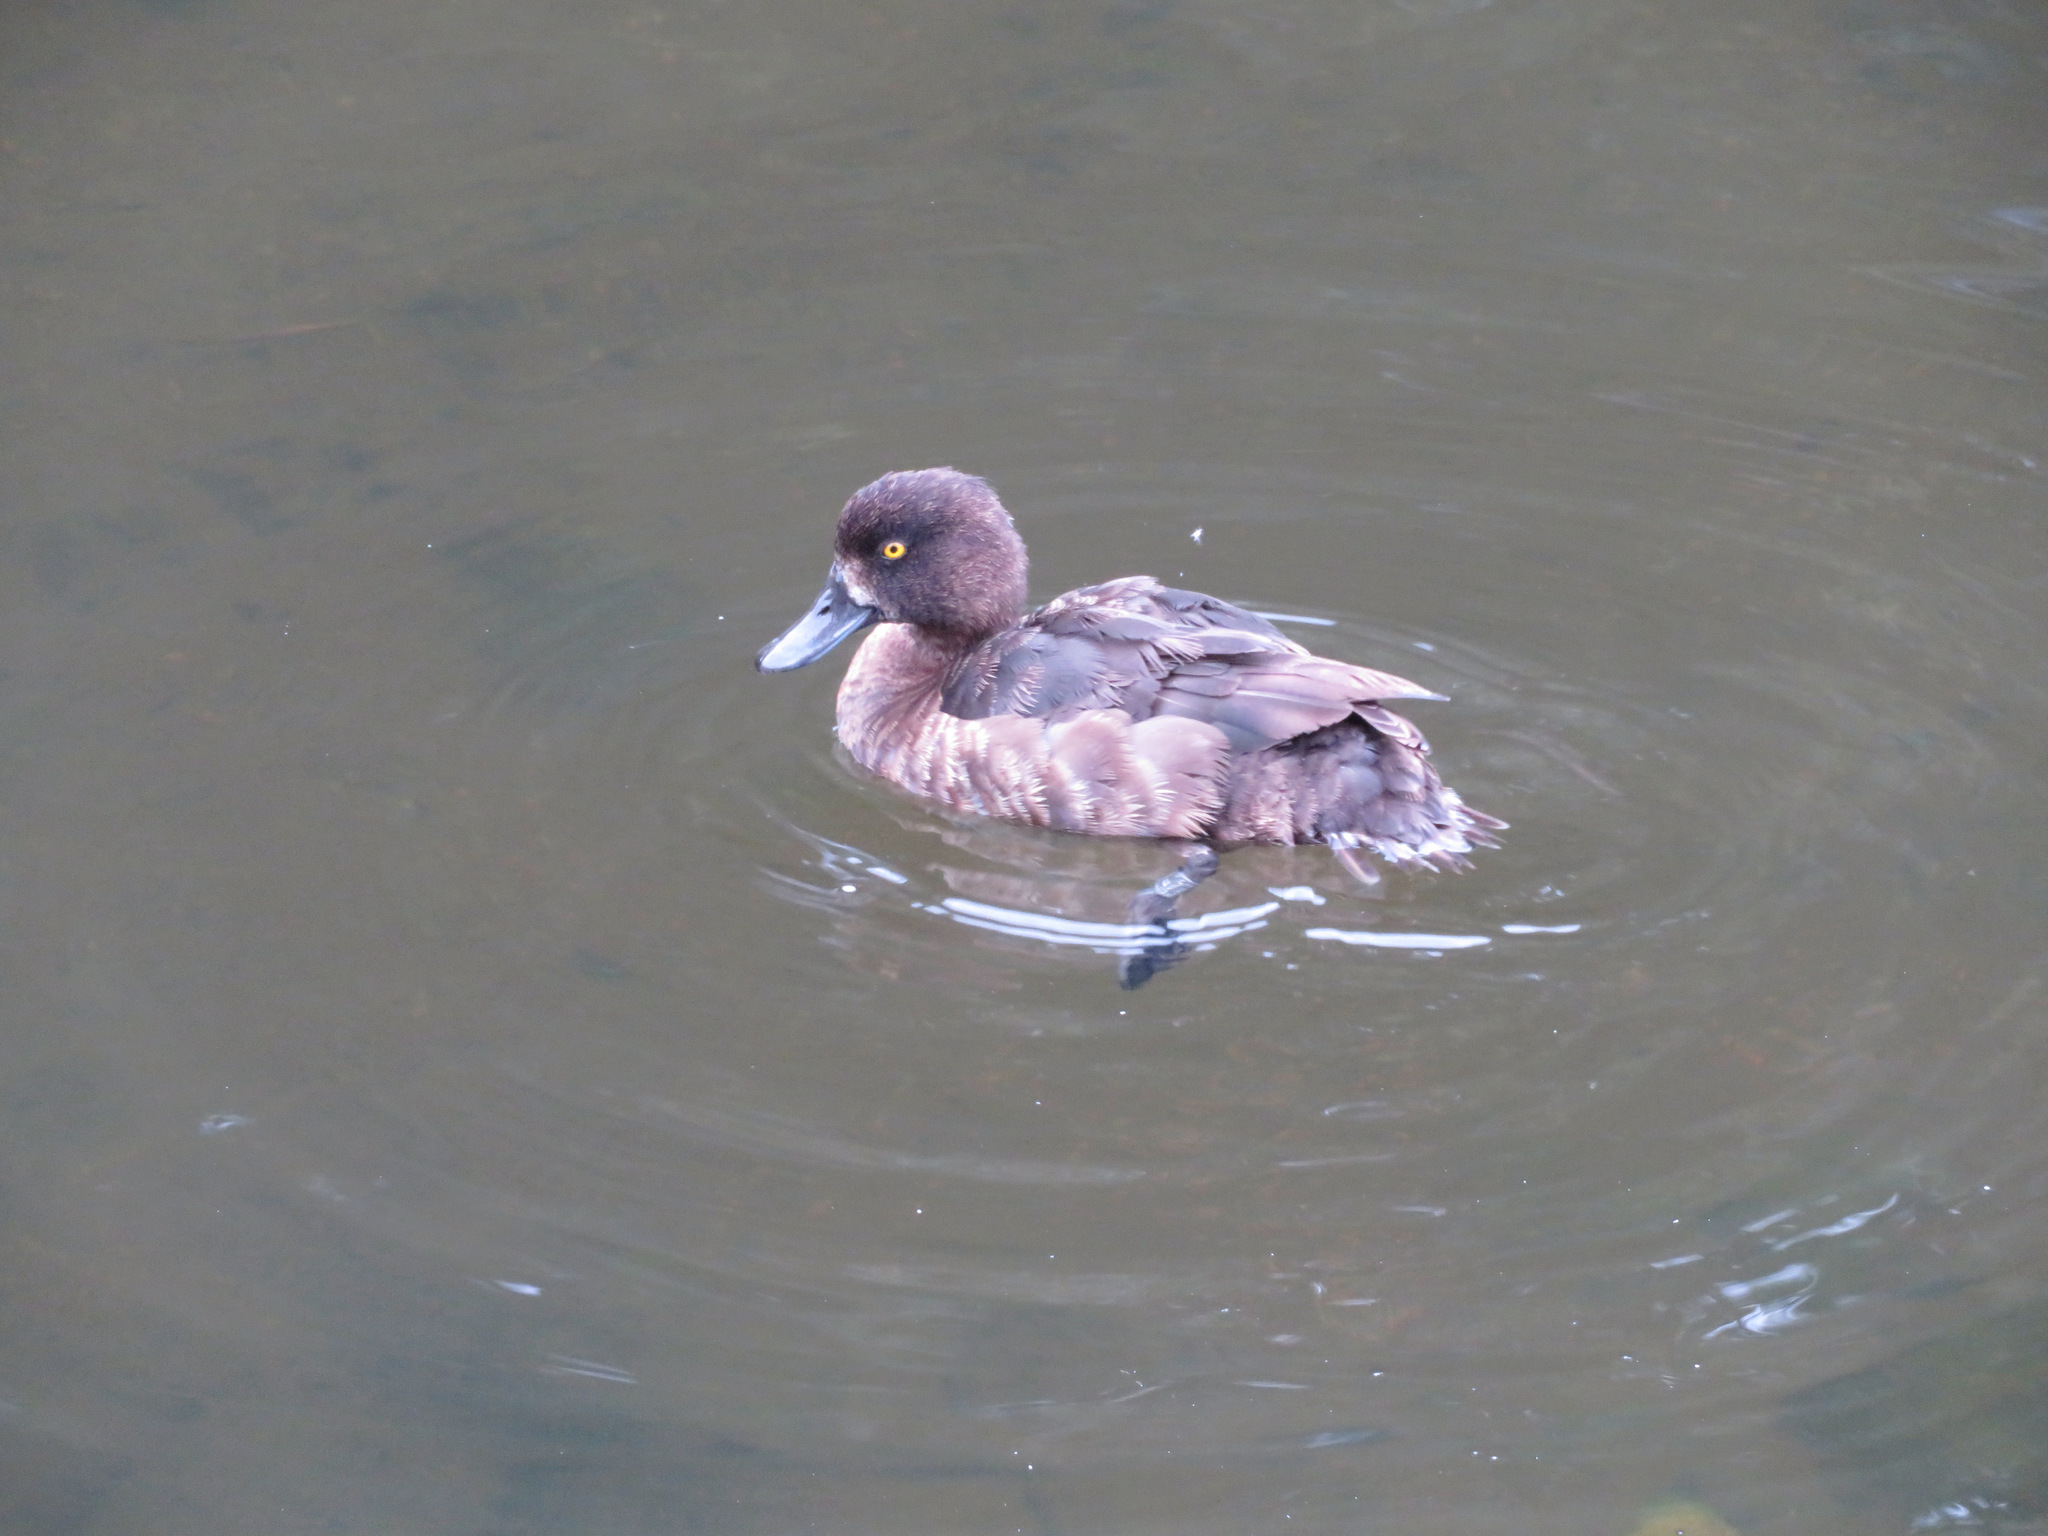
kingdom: Animalia
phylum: Chordata
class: Aves
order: Anseriformes
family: Anatidae
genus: Aythya
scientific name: Aythya fuligula
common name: Tufted duck
